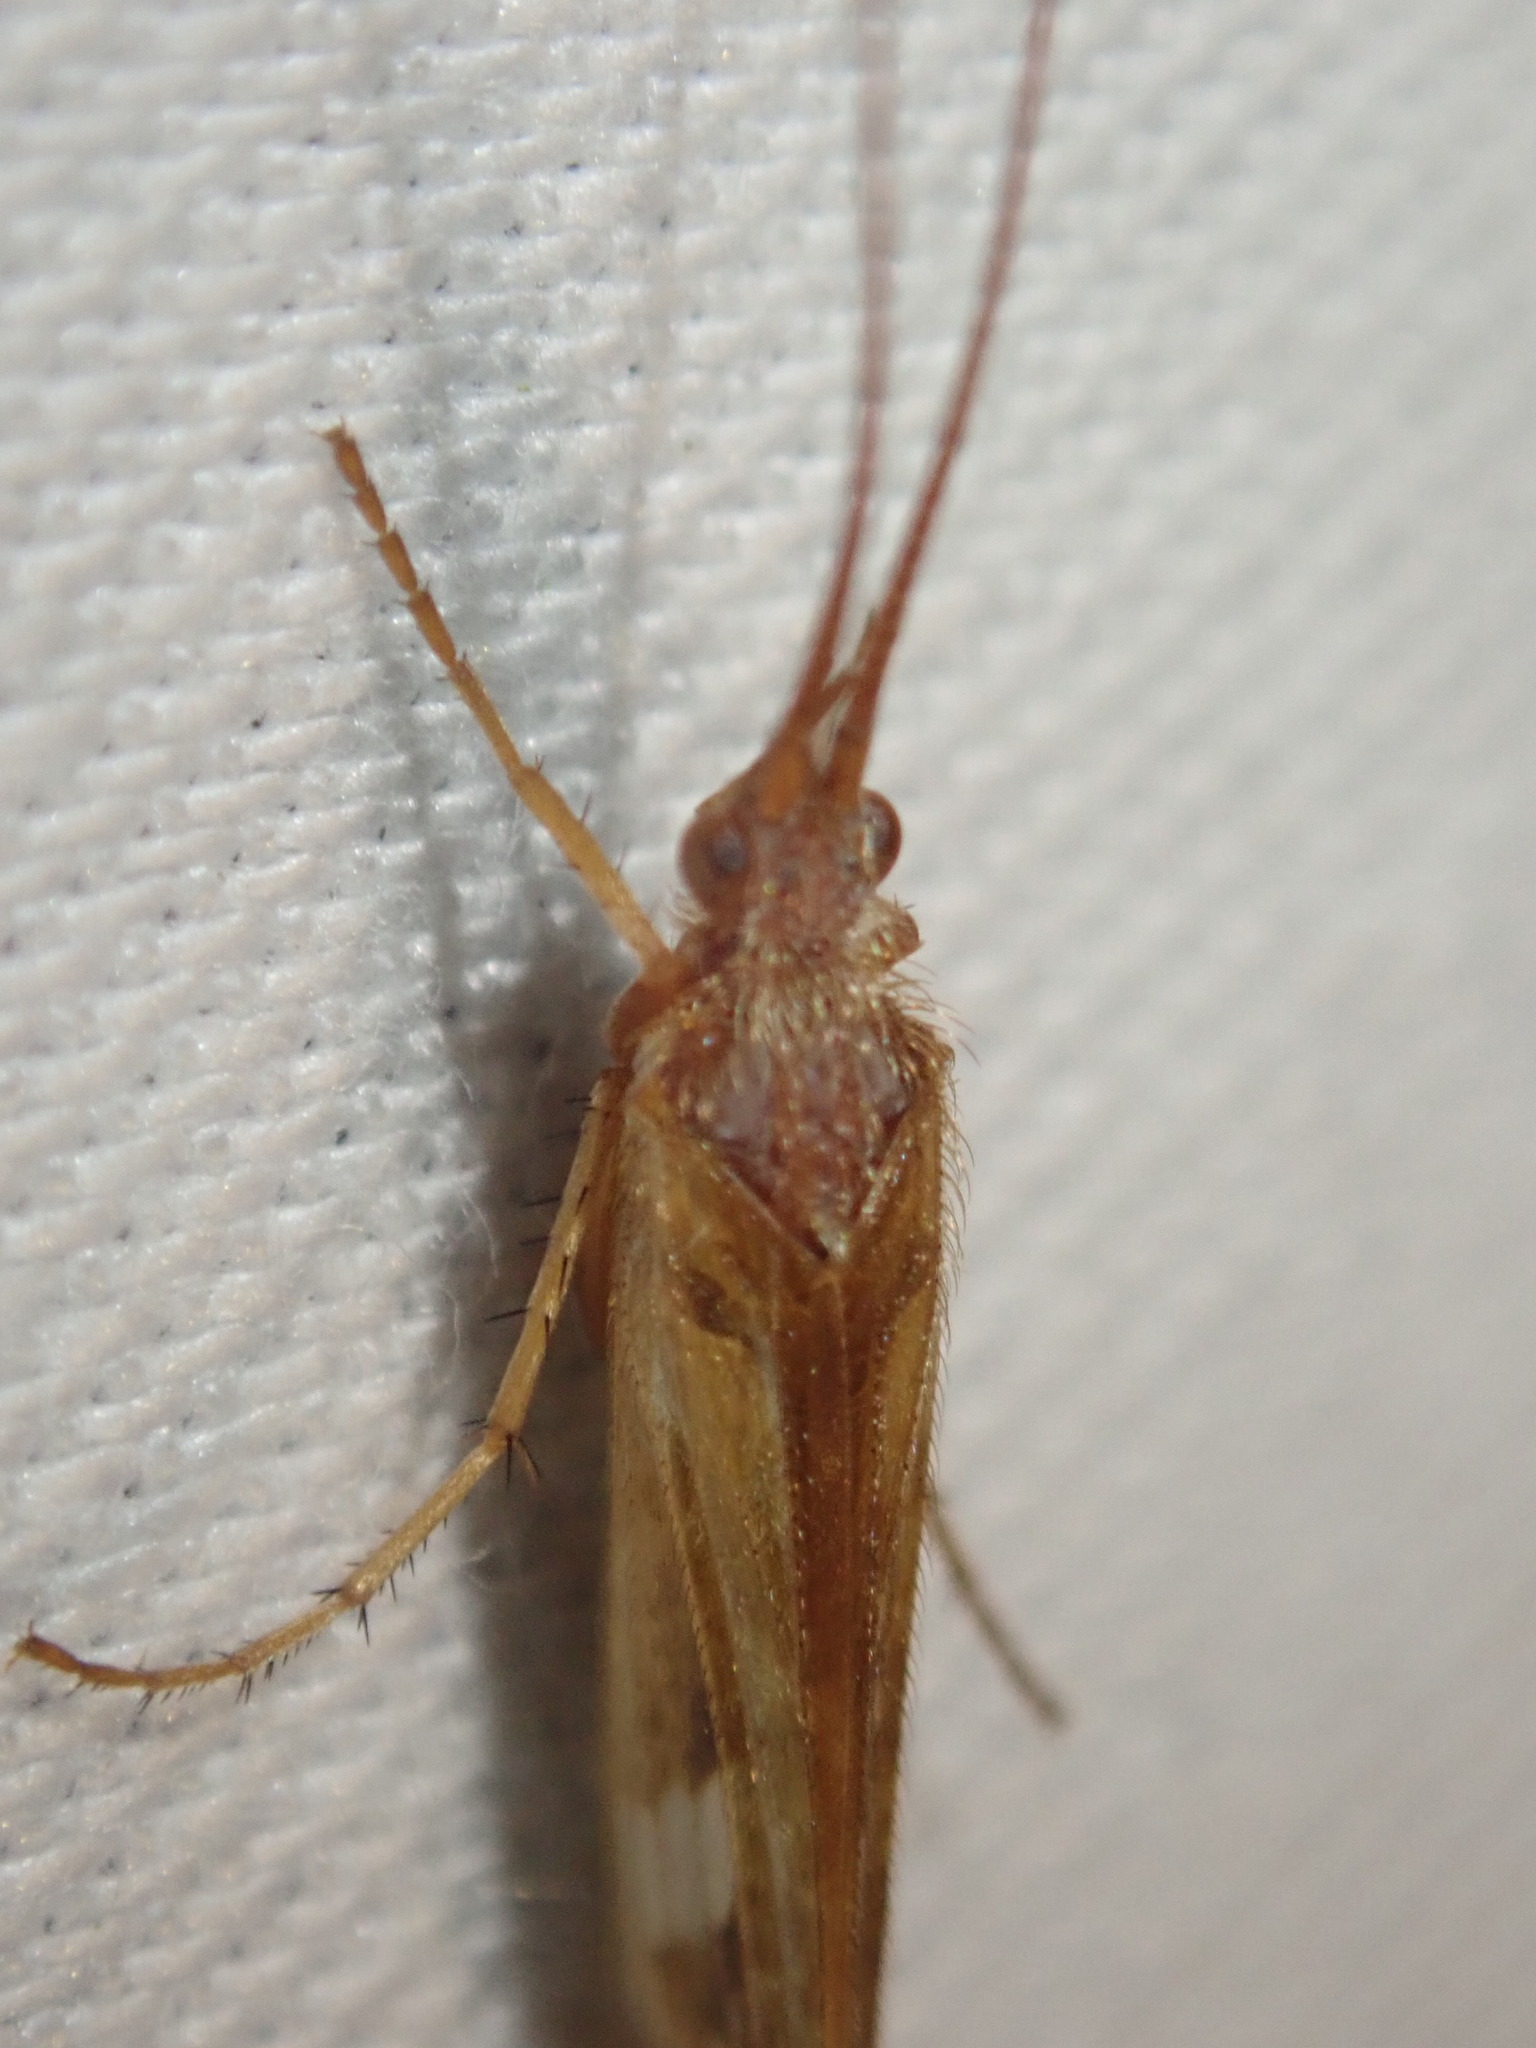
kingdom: Animalia
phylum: Arthropoda
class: Insecta
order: Trichoptera
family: Limnephilidae
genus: Limnephilus
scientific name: Limnephilus lunatus
